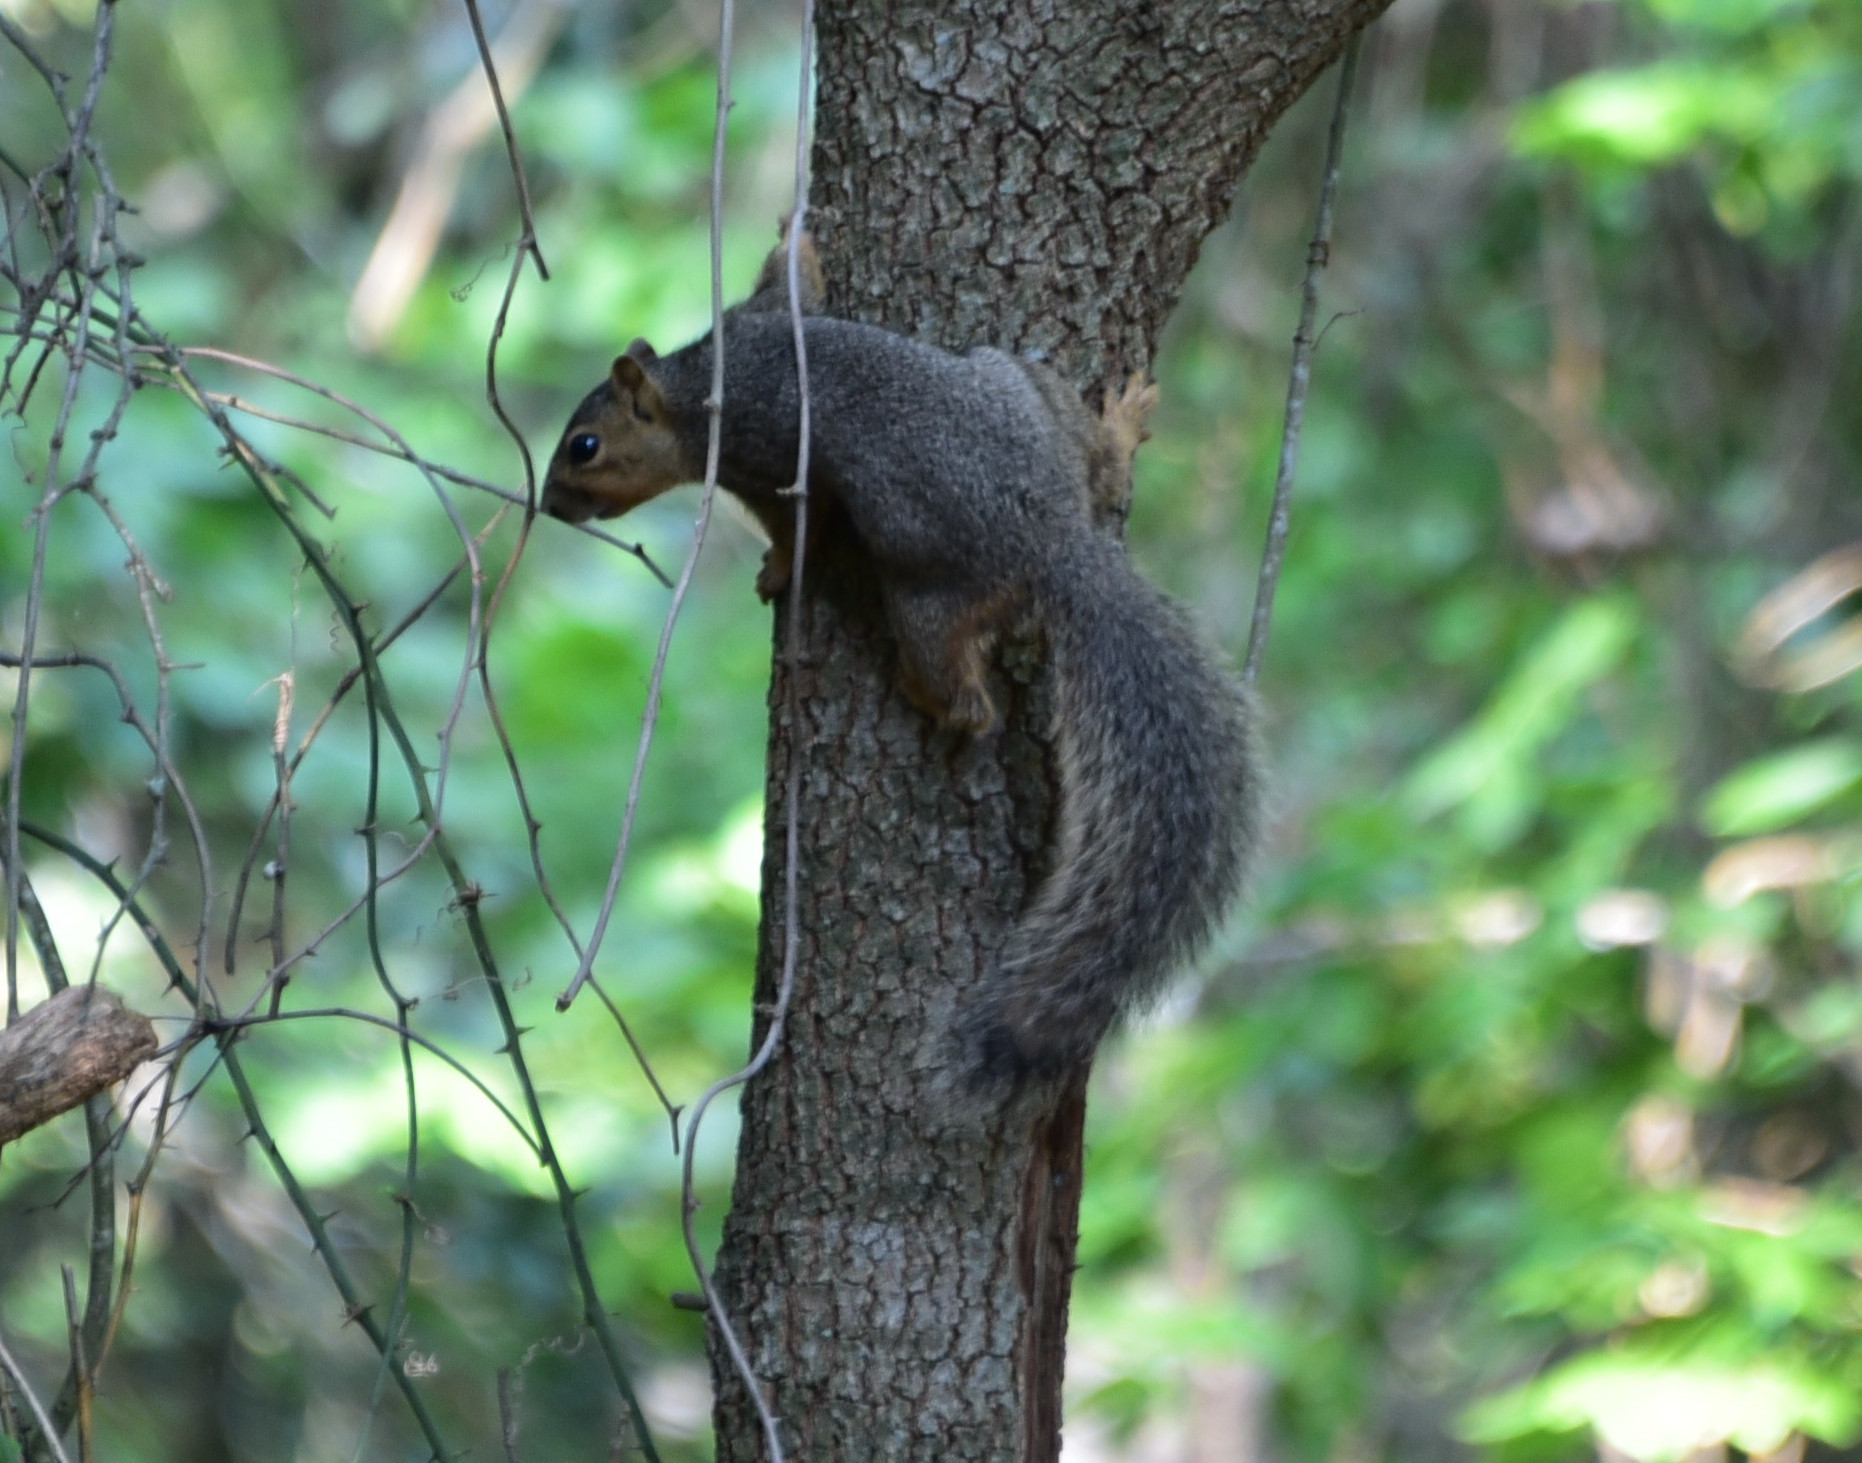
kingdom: Animalia
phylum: Chordata
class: Mammalia
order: Rodentia
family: Sciuridae
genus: Sciurus
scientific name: Sciurus niger
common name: Fox squirrel
